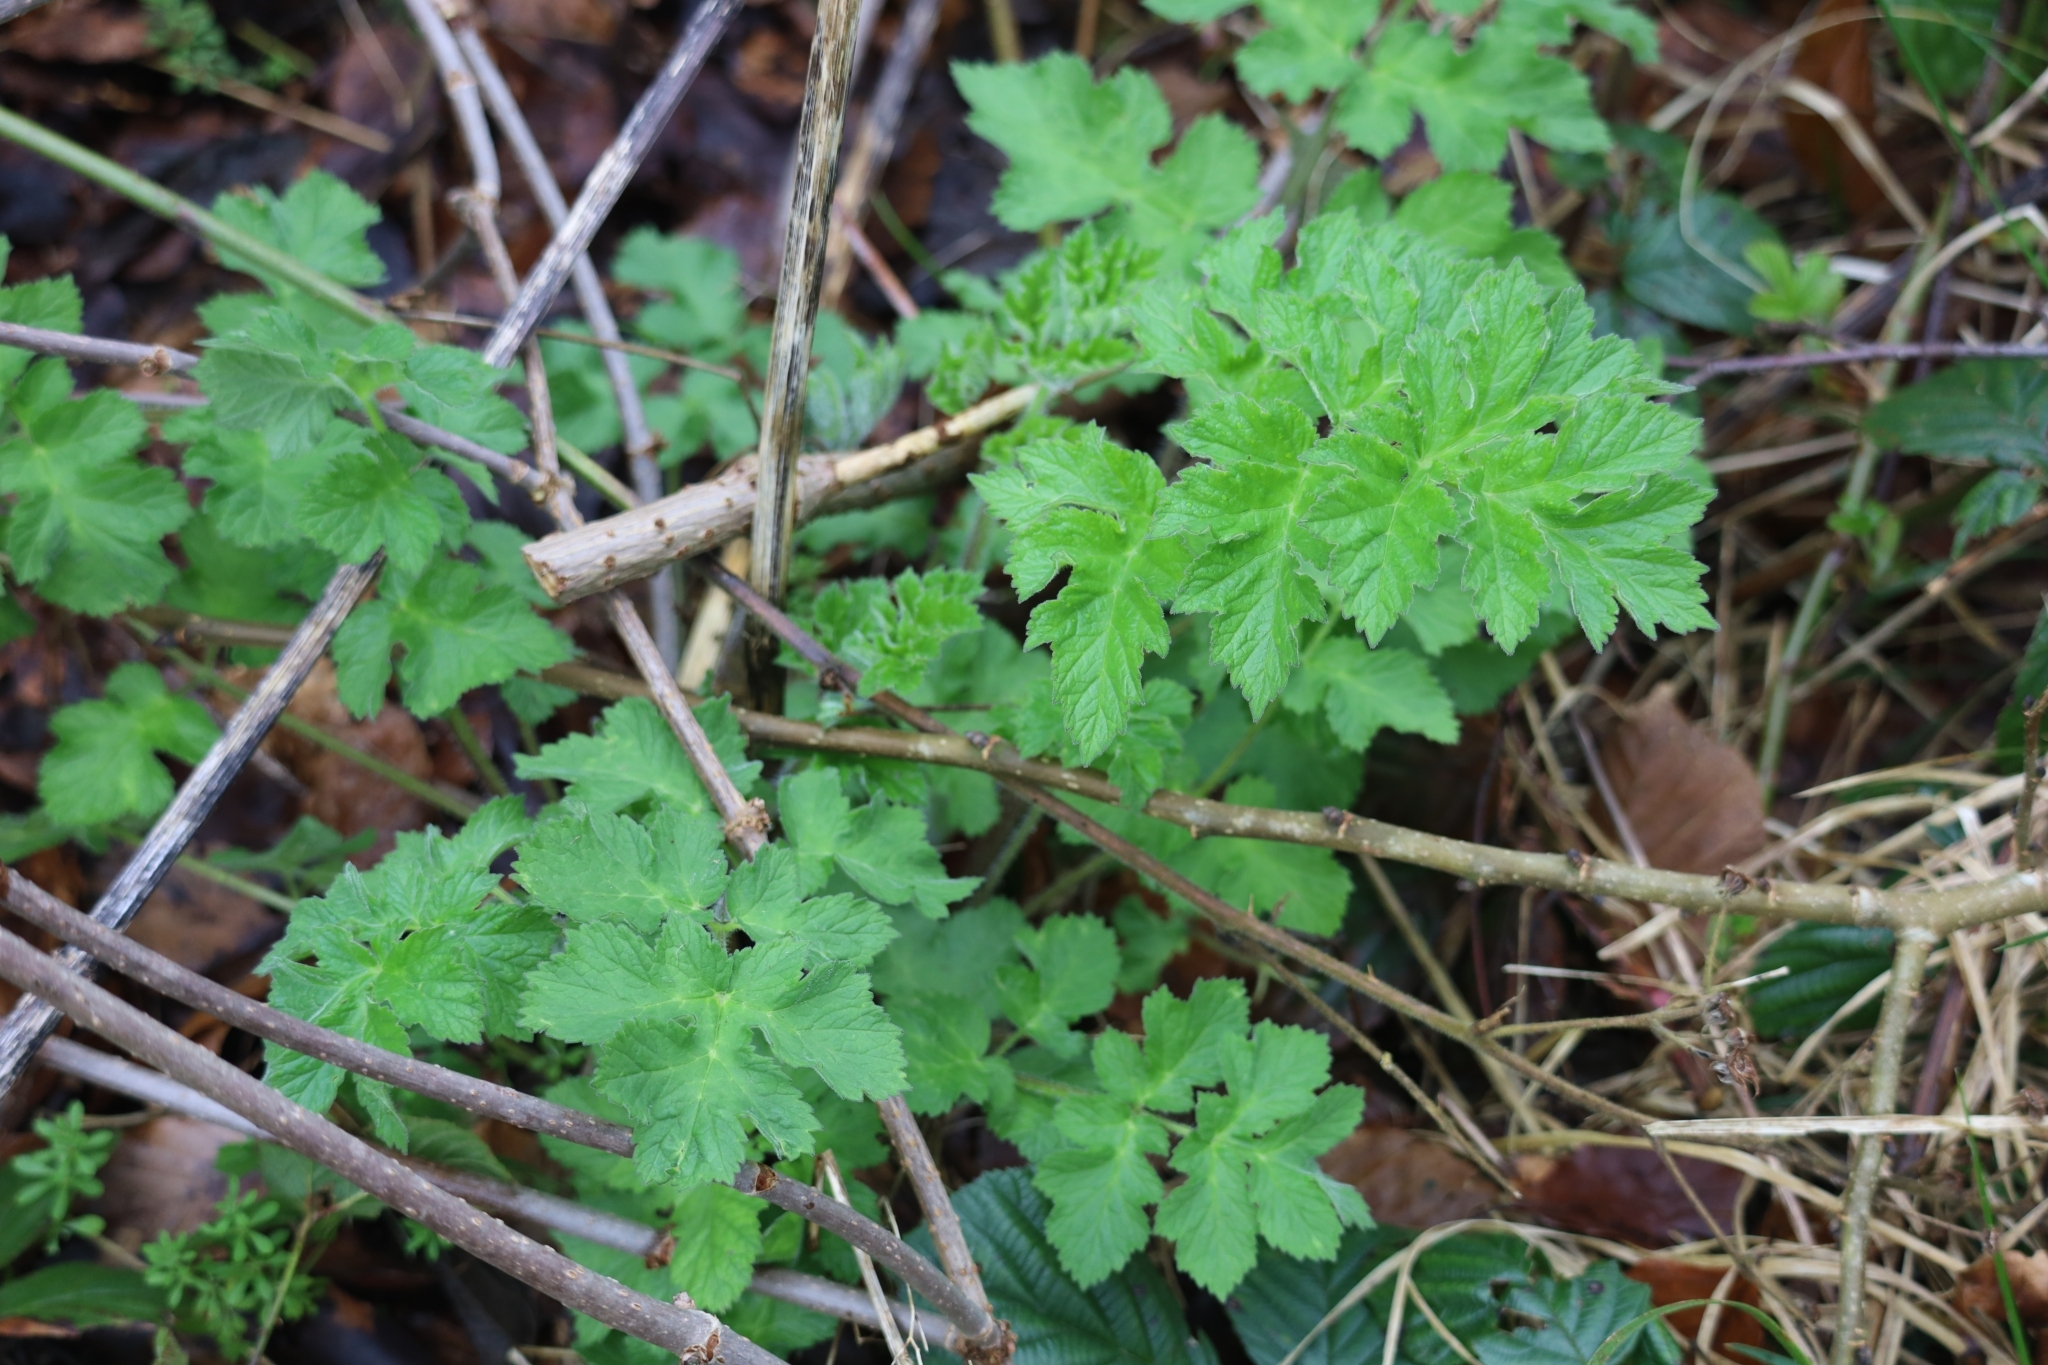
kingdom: Plantae
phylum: Tracheophyta
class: Magnoliopsida
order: Apiales
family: Apiaceae
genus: Heracleum
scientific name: Heracleum sphondylium
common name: Hogweed
